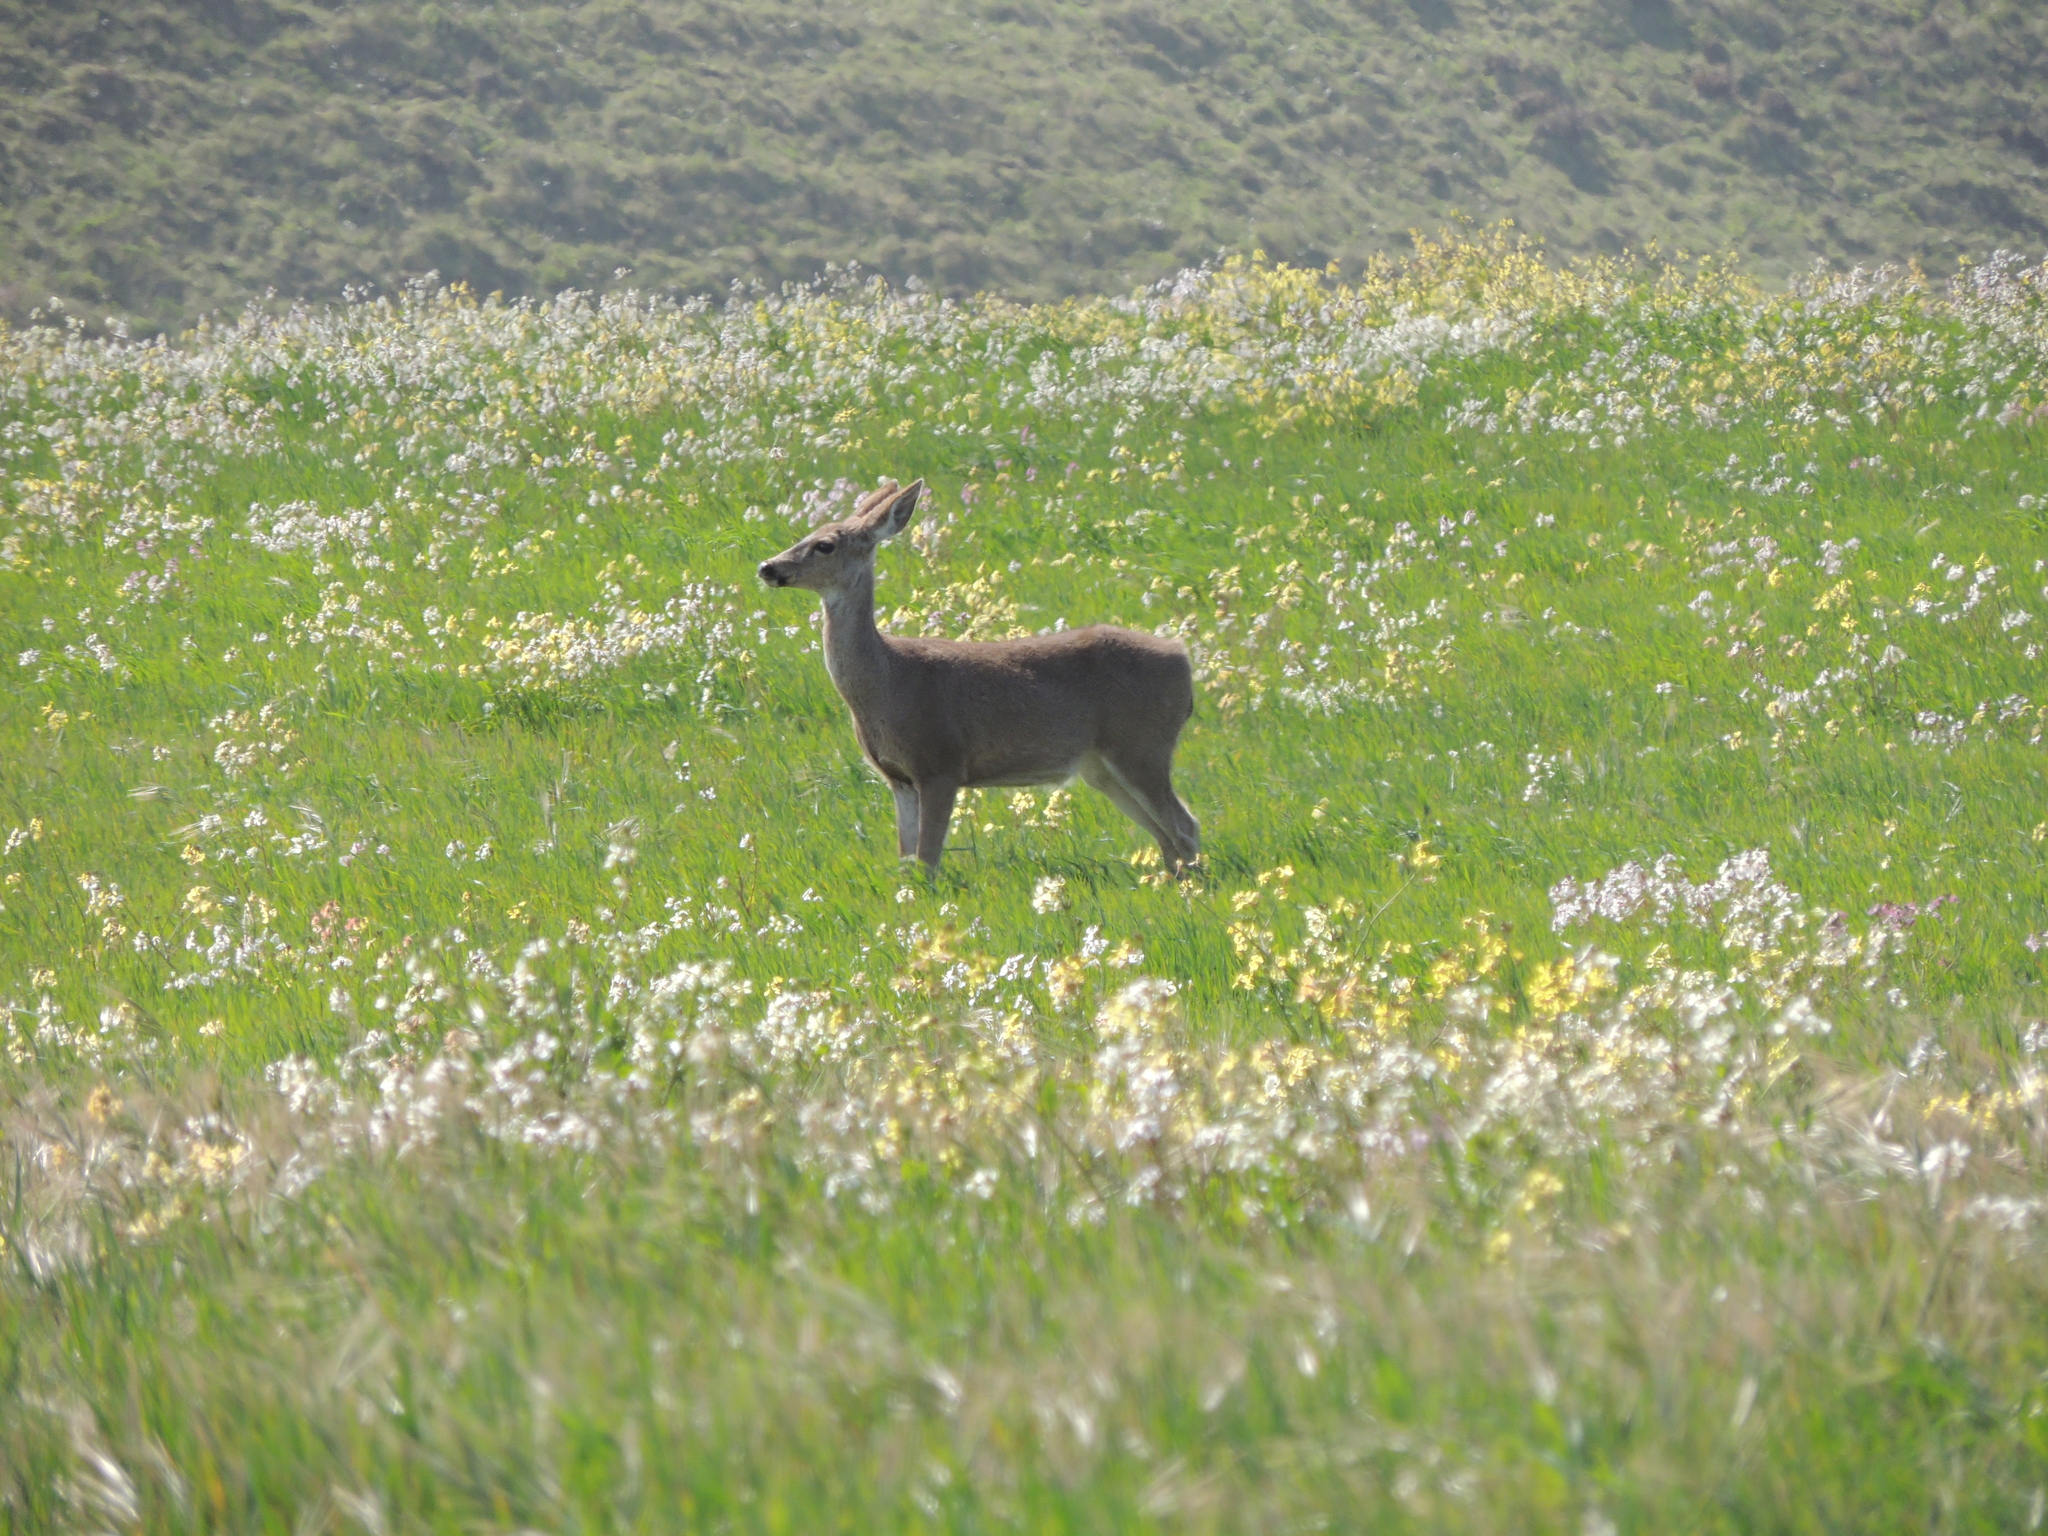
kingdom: Animalia
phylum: Chordata
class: Mammalia
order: Artiodactyla
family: Cervidae
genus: Odocoileus
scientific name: Odocoileus hemionus
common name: Mule deer
